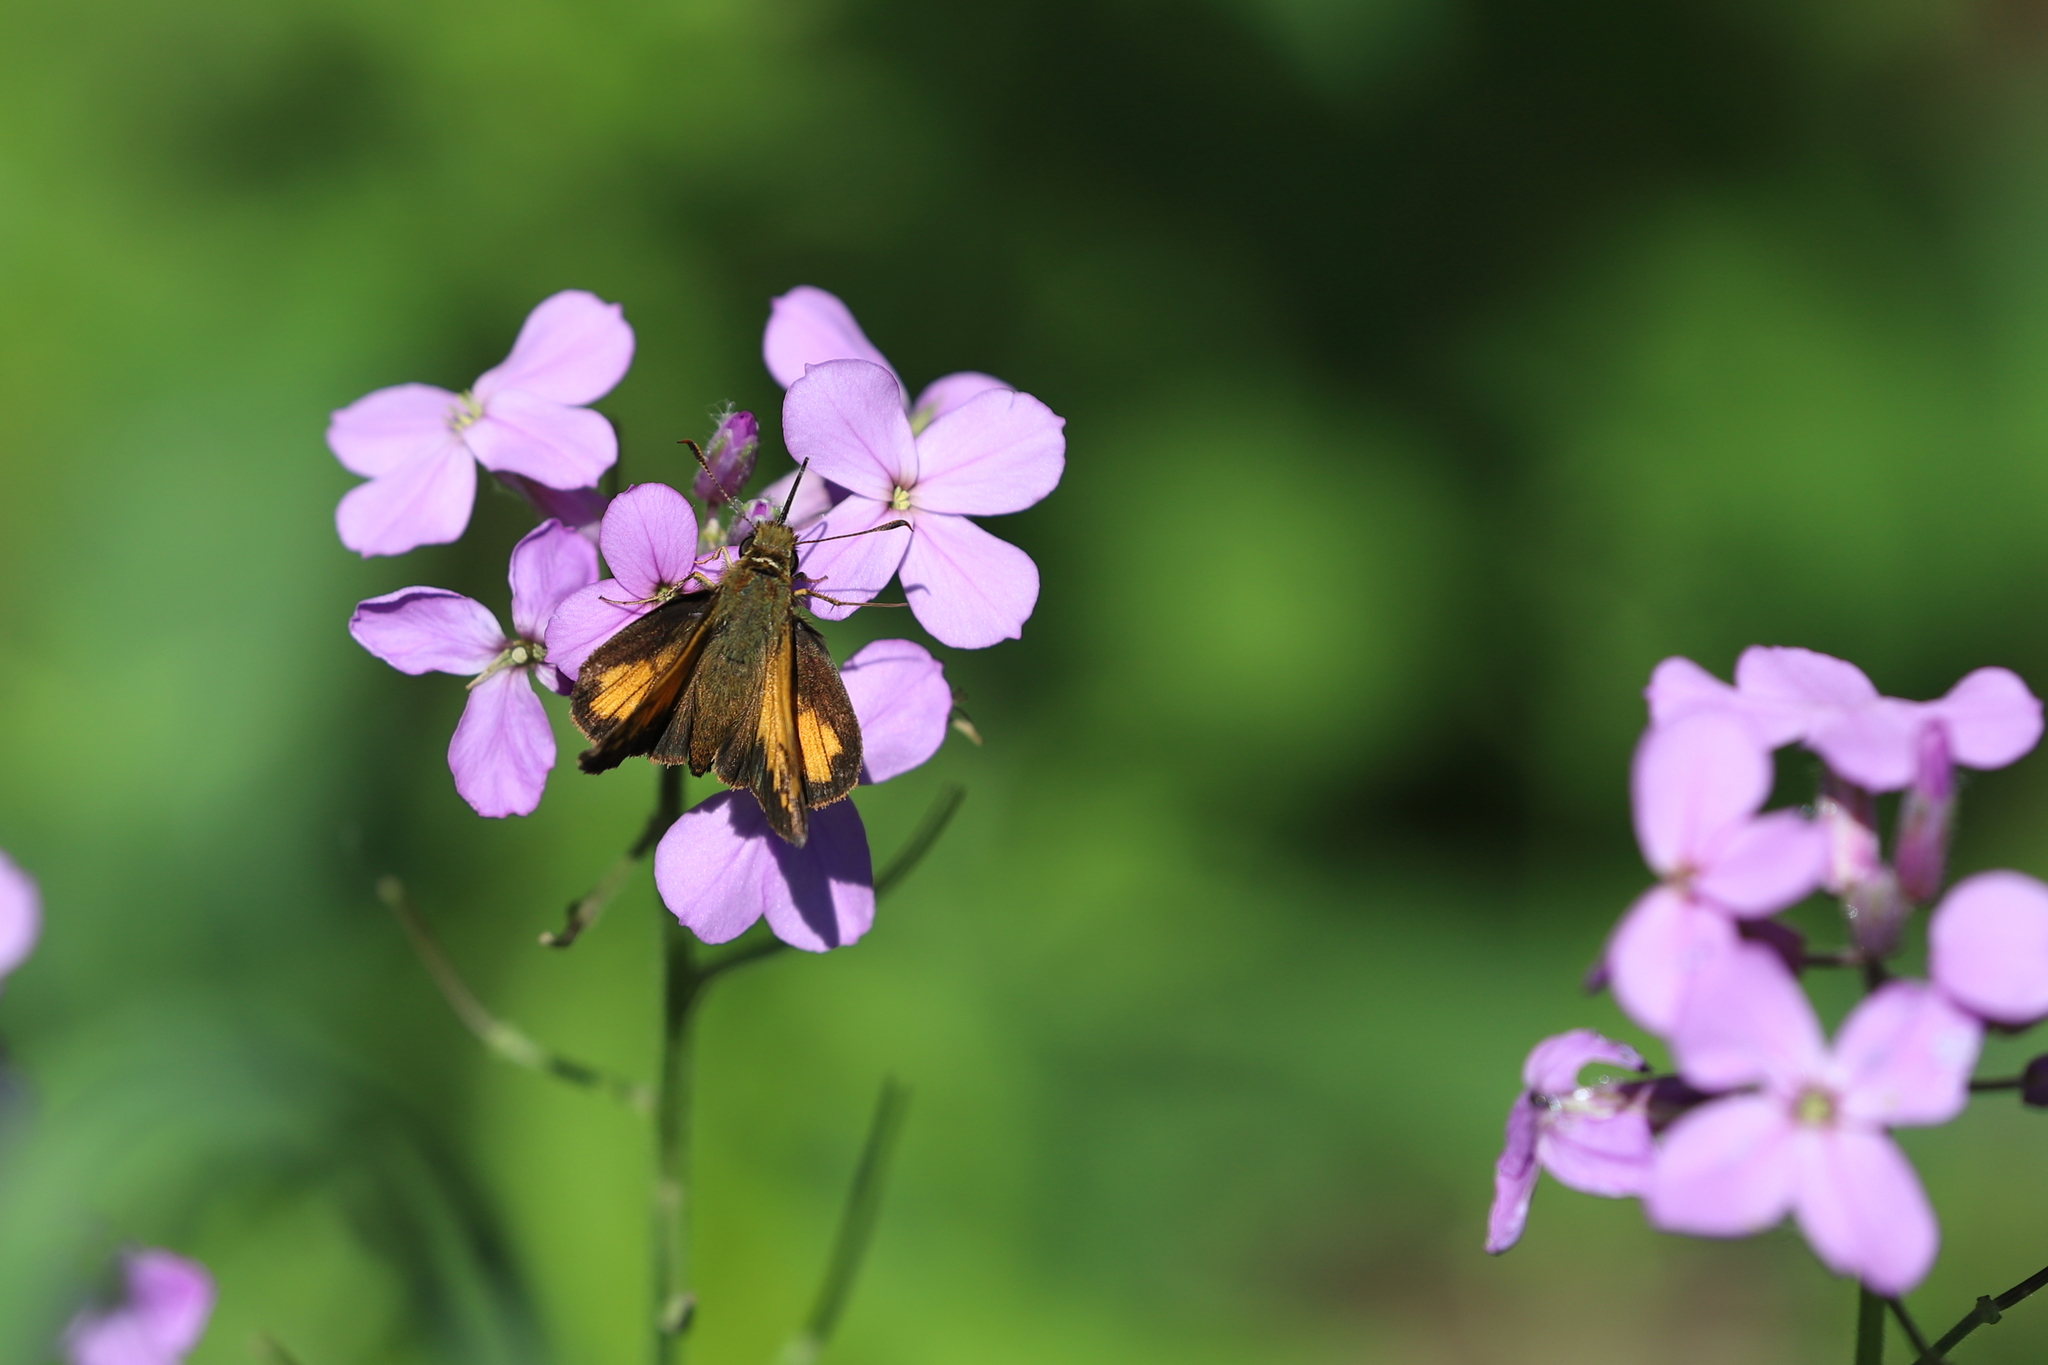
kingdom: Animalia
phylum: Arthropoda
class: Insecta
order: Lepidoptera
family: Hesperiidae
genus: Lon
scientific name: Lon hobomok
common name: Hobomok skipper
